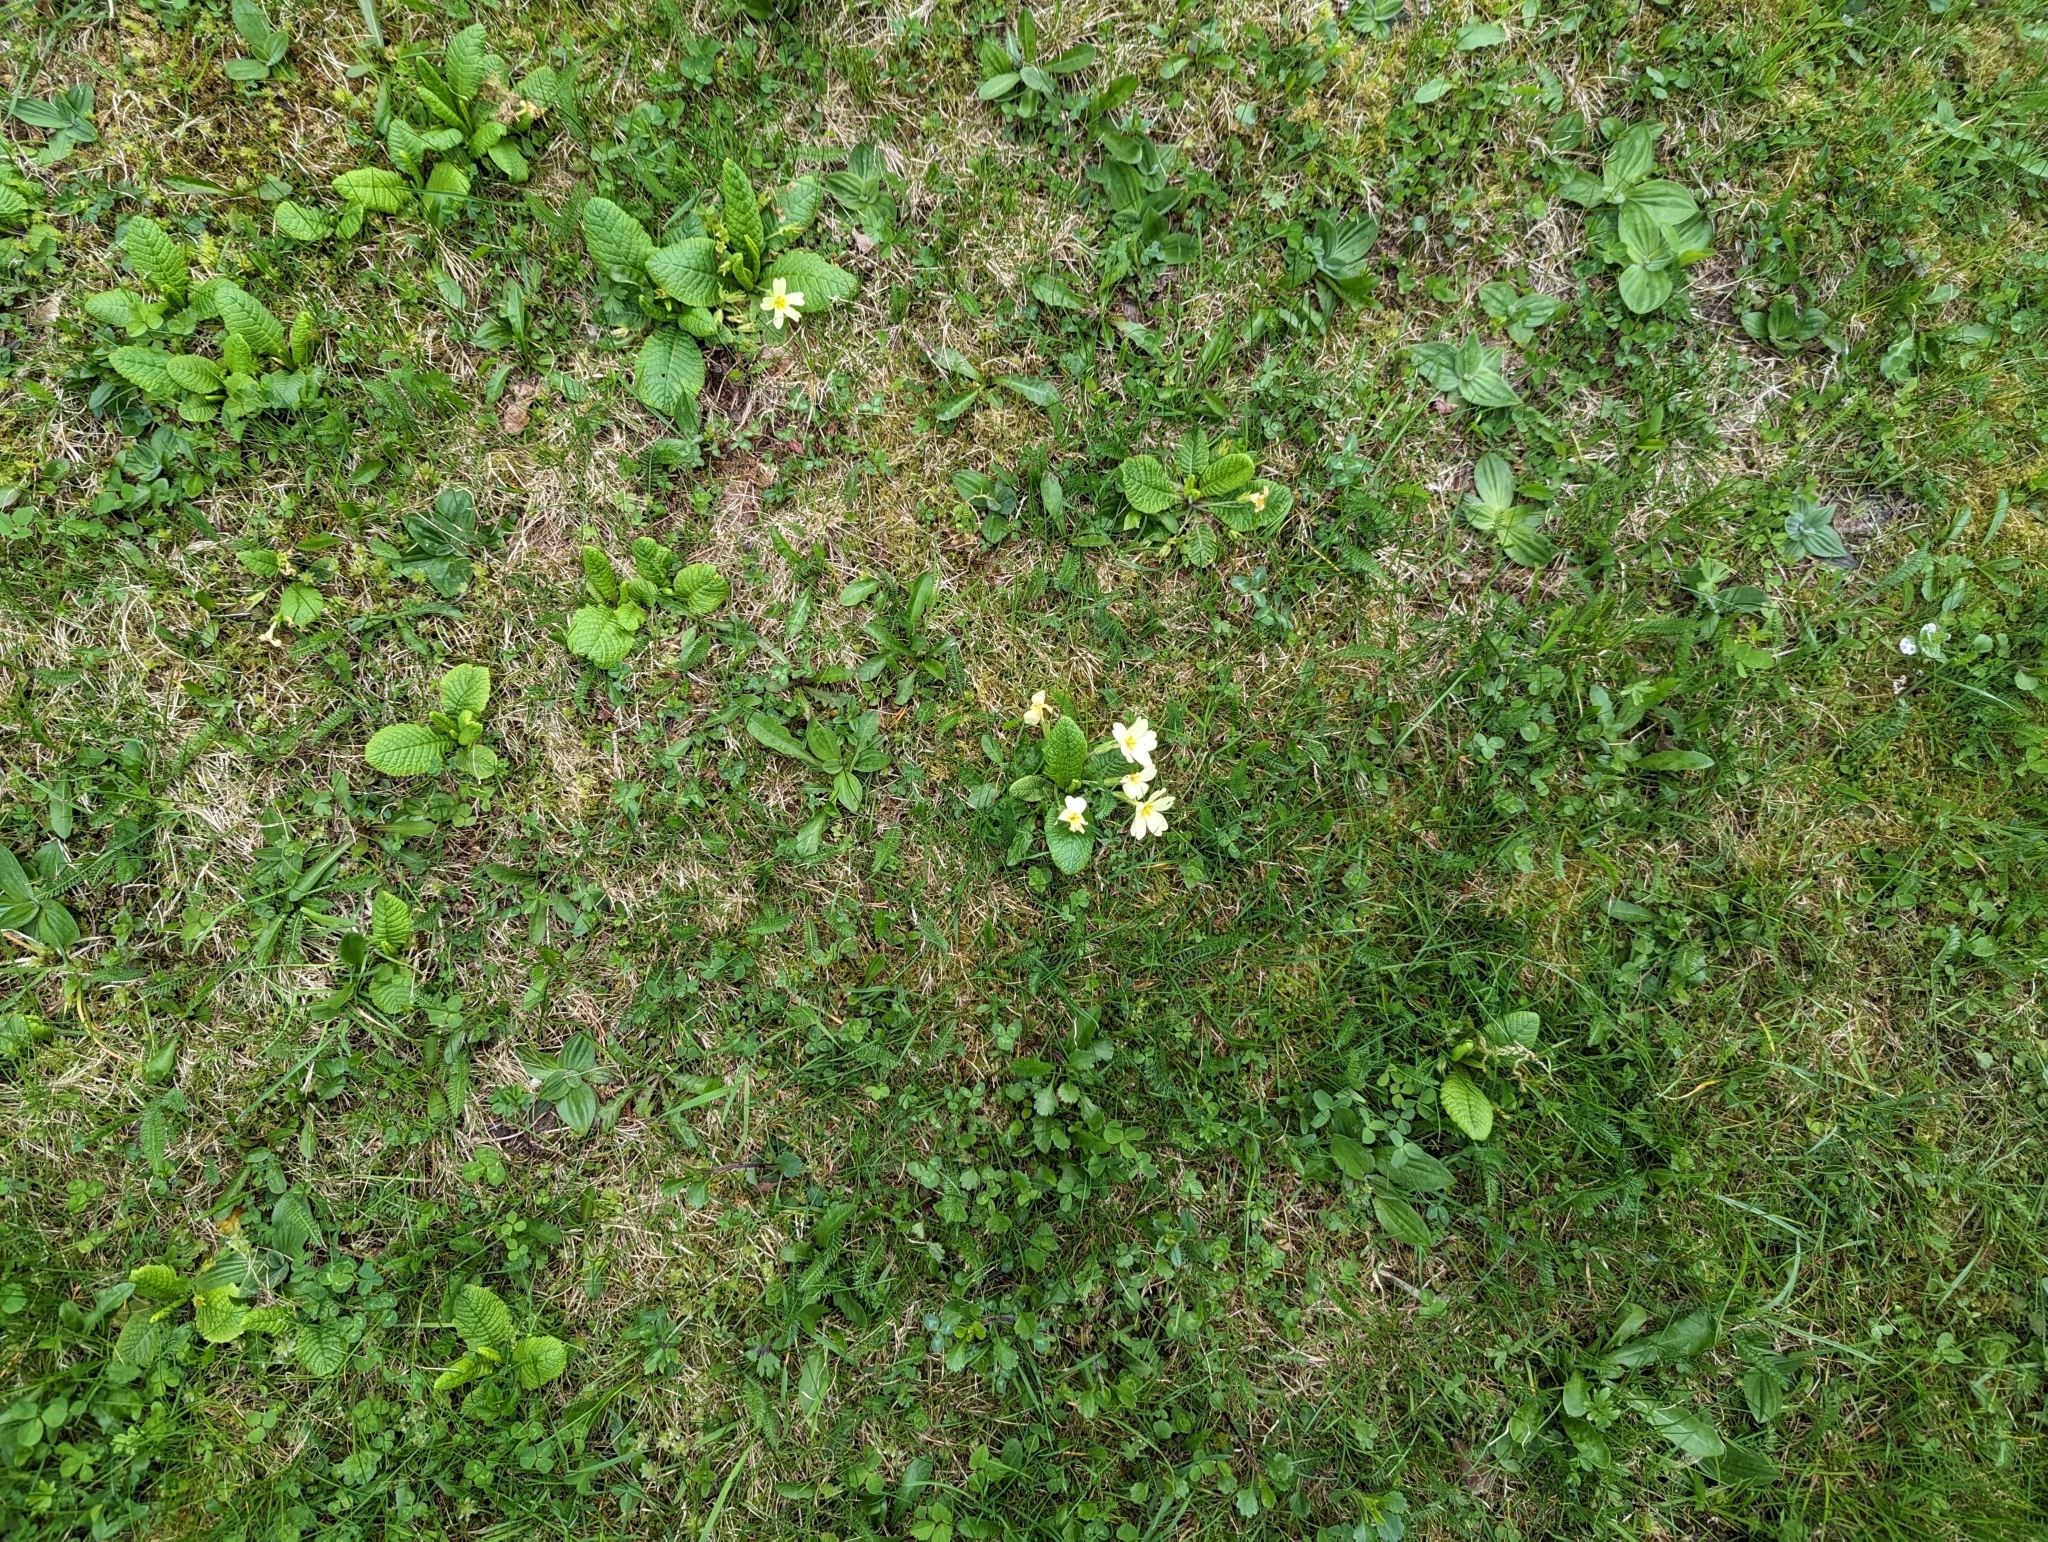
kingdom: Plantae
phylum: Tracheophyta
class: Magnoliopsida
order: Ericales
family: Primulaceae
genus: Primula
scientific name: Primula vulgaris
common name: Primrose
